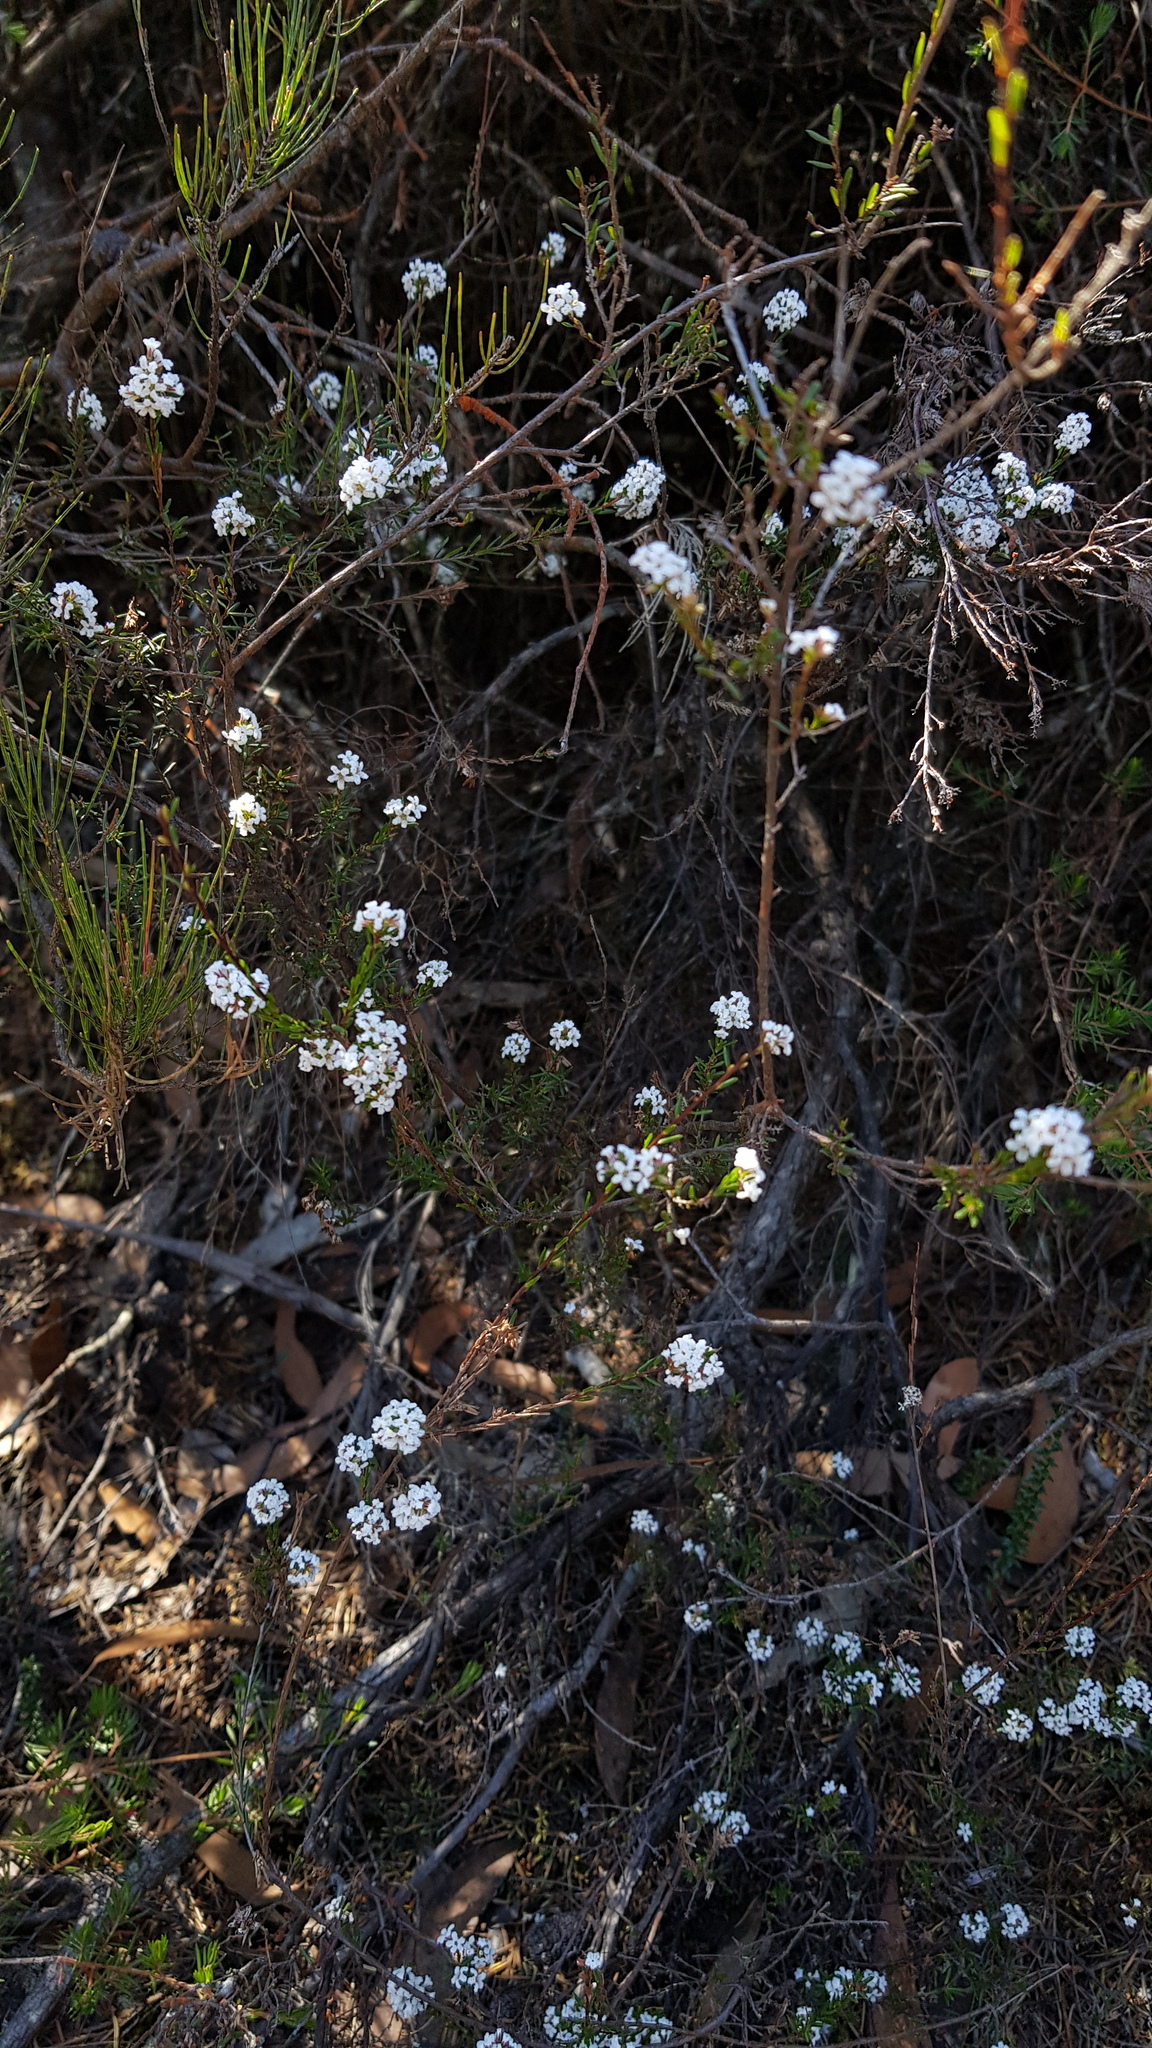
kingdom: Plantae
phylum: Tracheophyta
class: Magnoliopsida
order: Ericales
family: Ericaceae
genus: Leucopogon
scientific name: Leucopogon microphyllus
